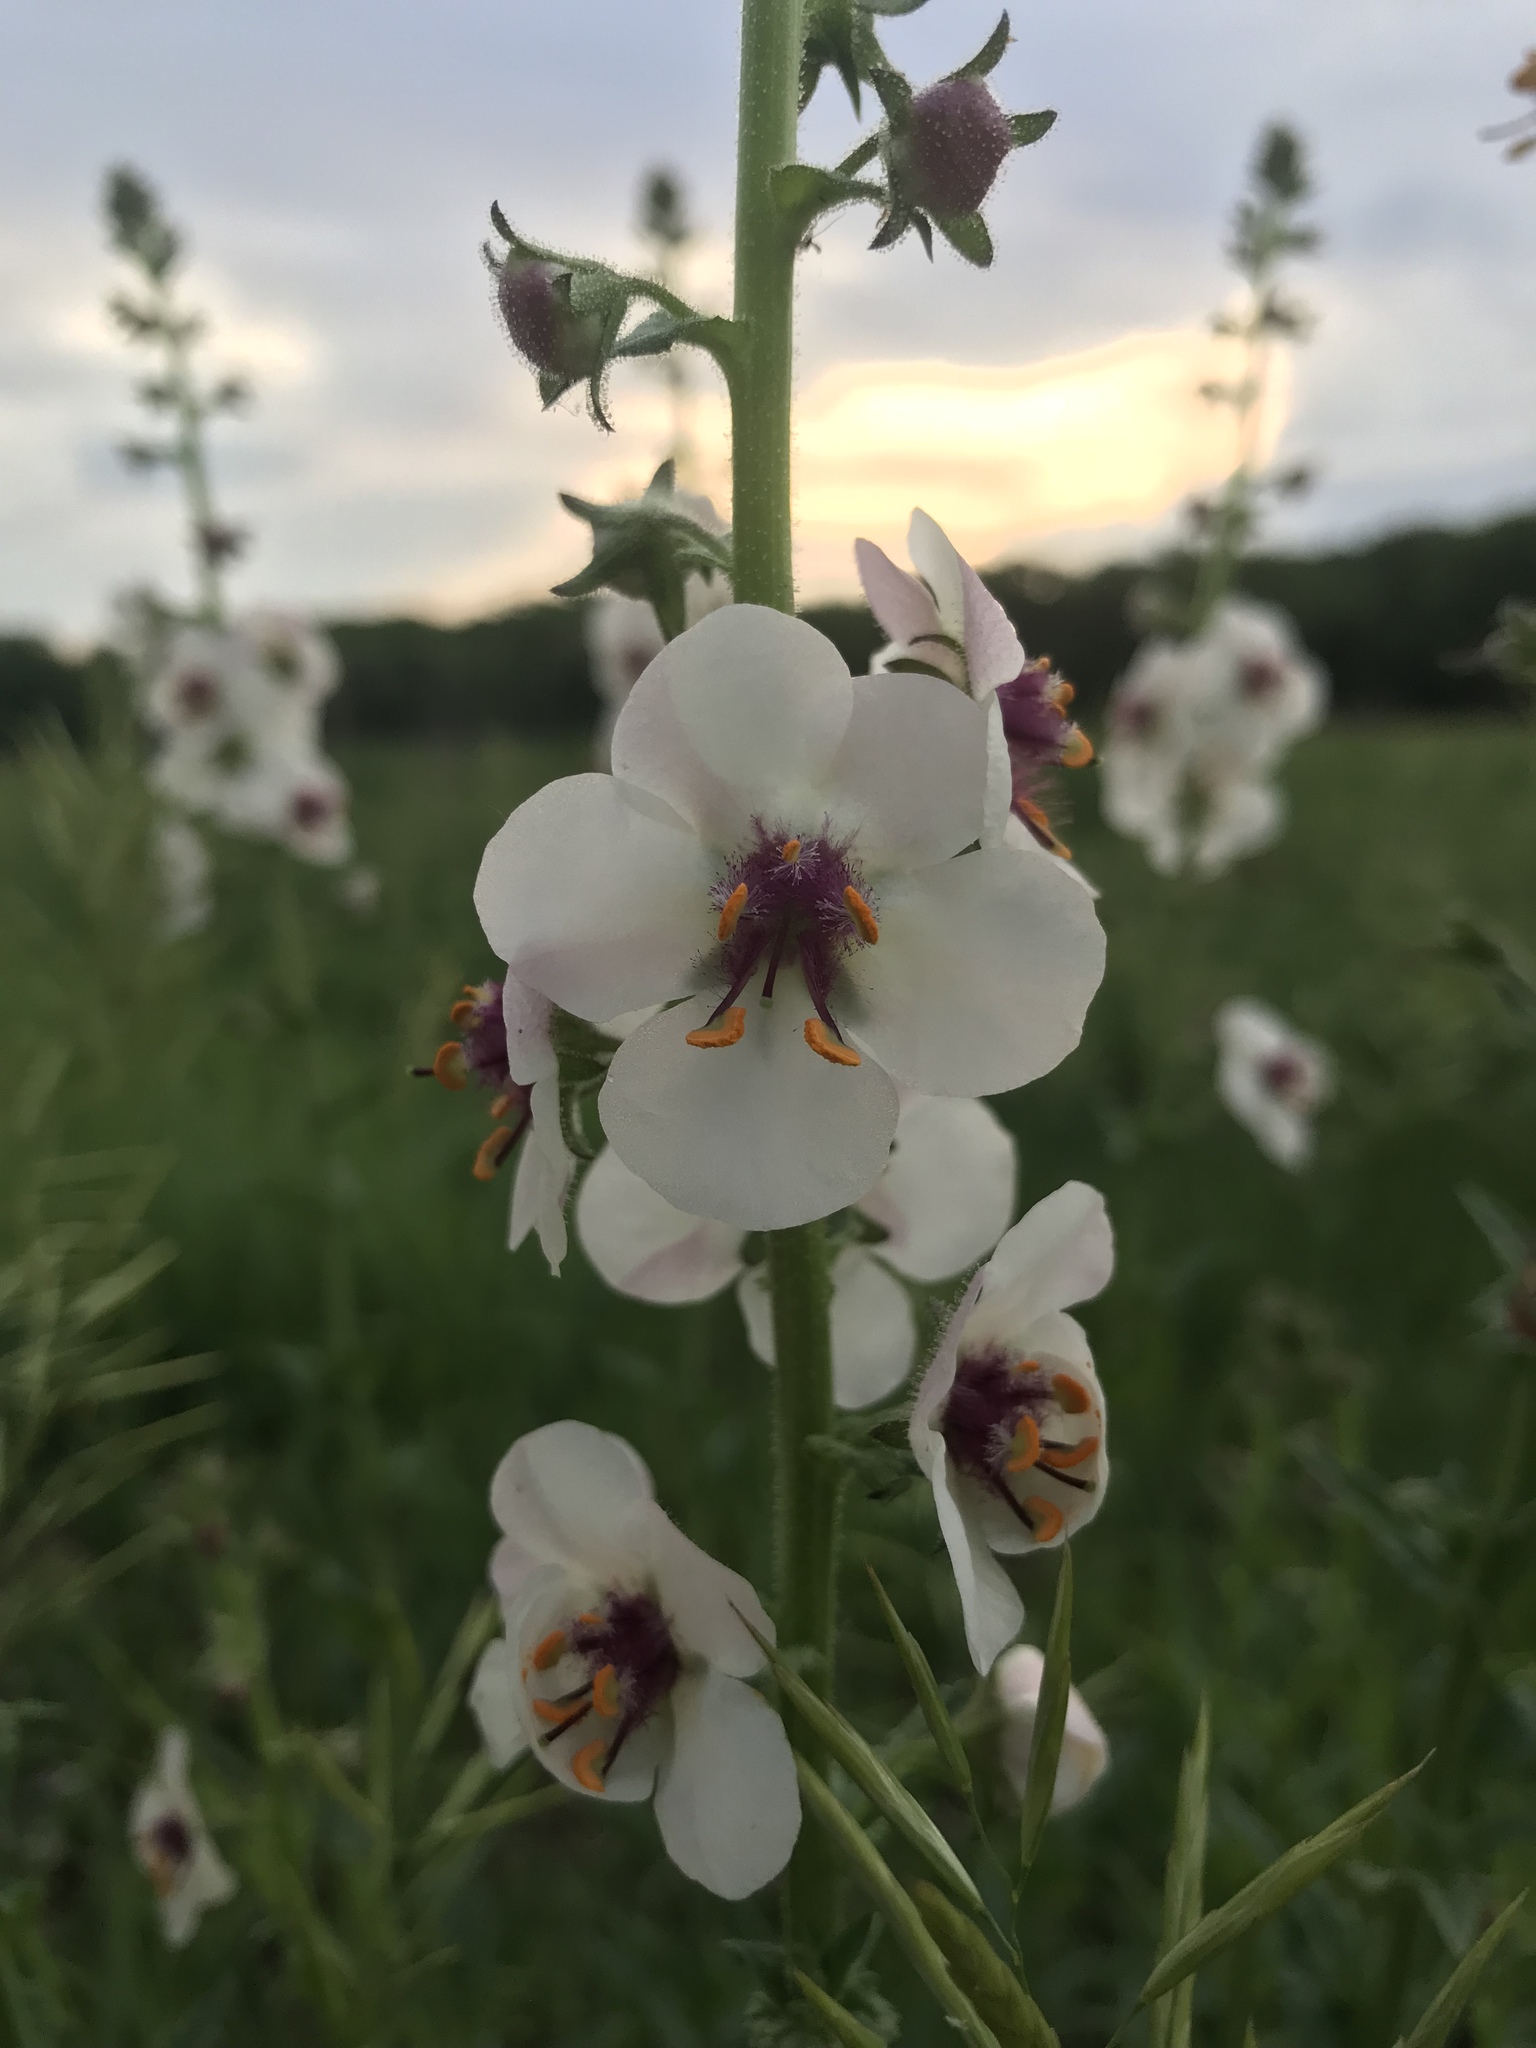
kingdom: Plantae
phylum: Tracheophyta
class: Magnoliopsida
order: Lamiales
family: Scrophulariaceae
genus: Verbascum
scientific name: Verbascum blattaria
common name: Moth mullein
